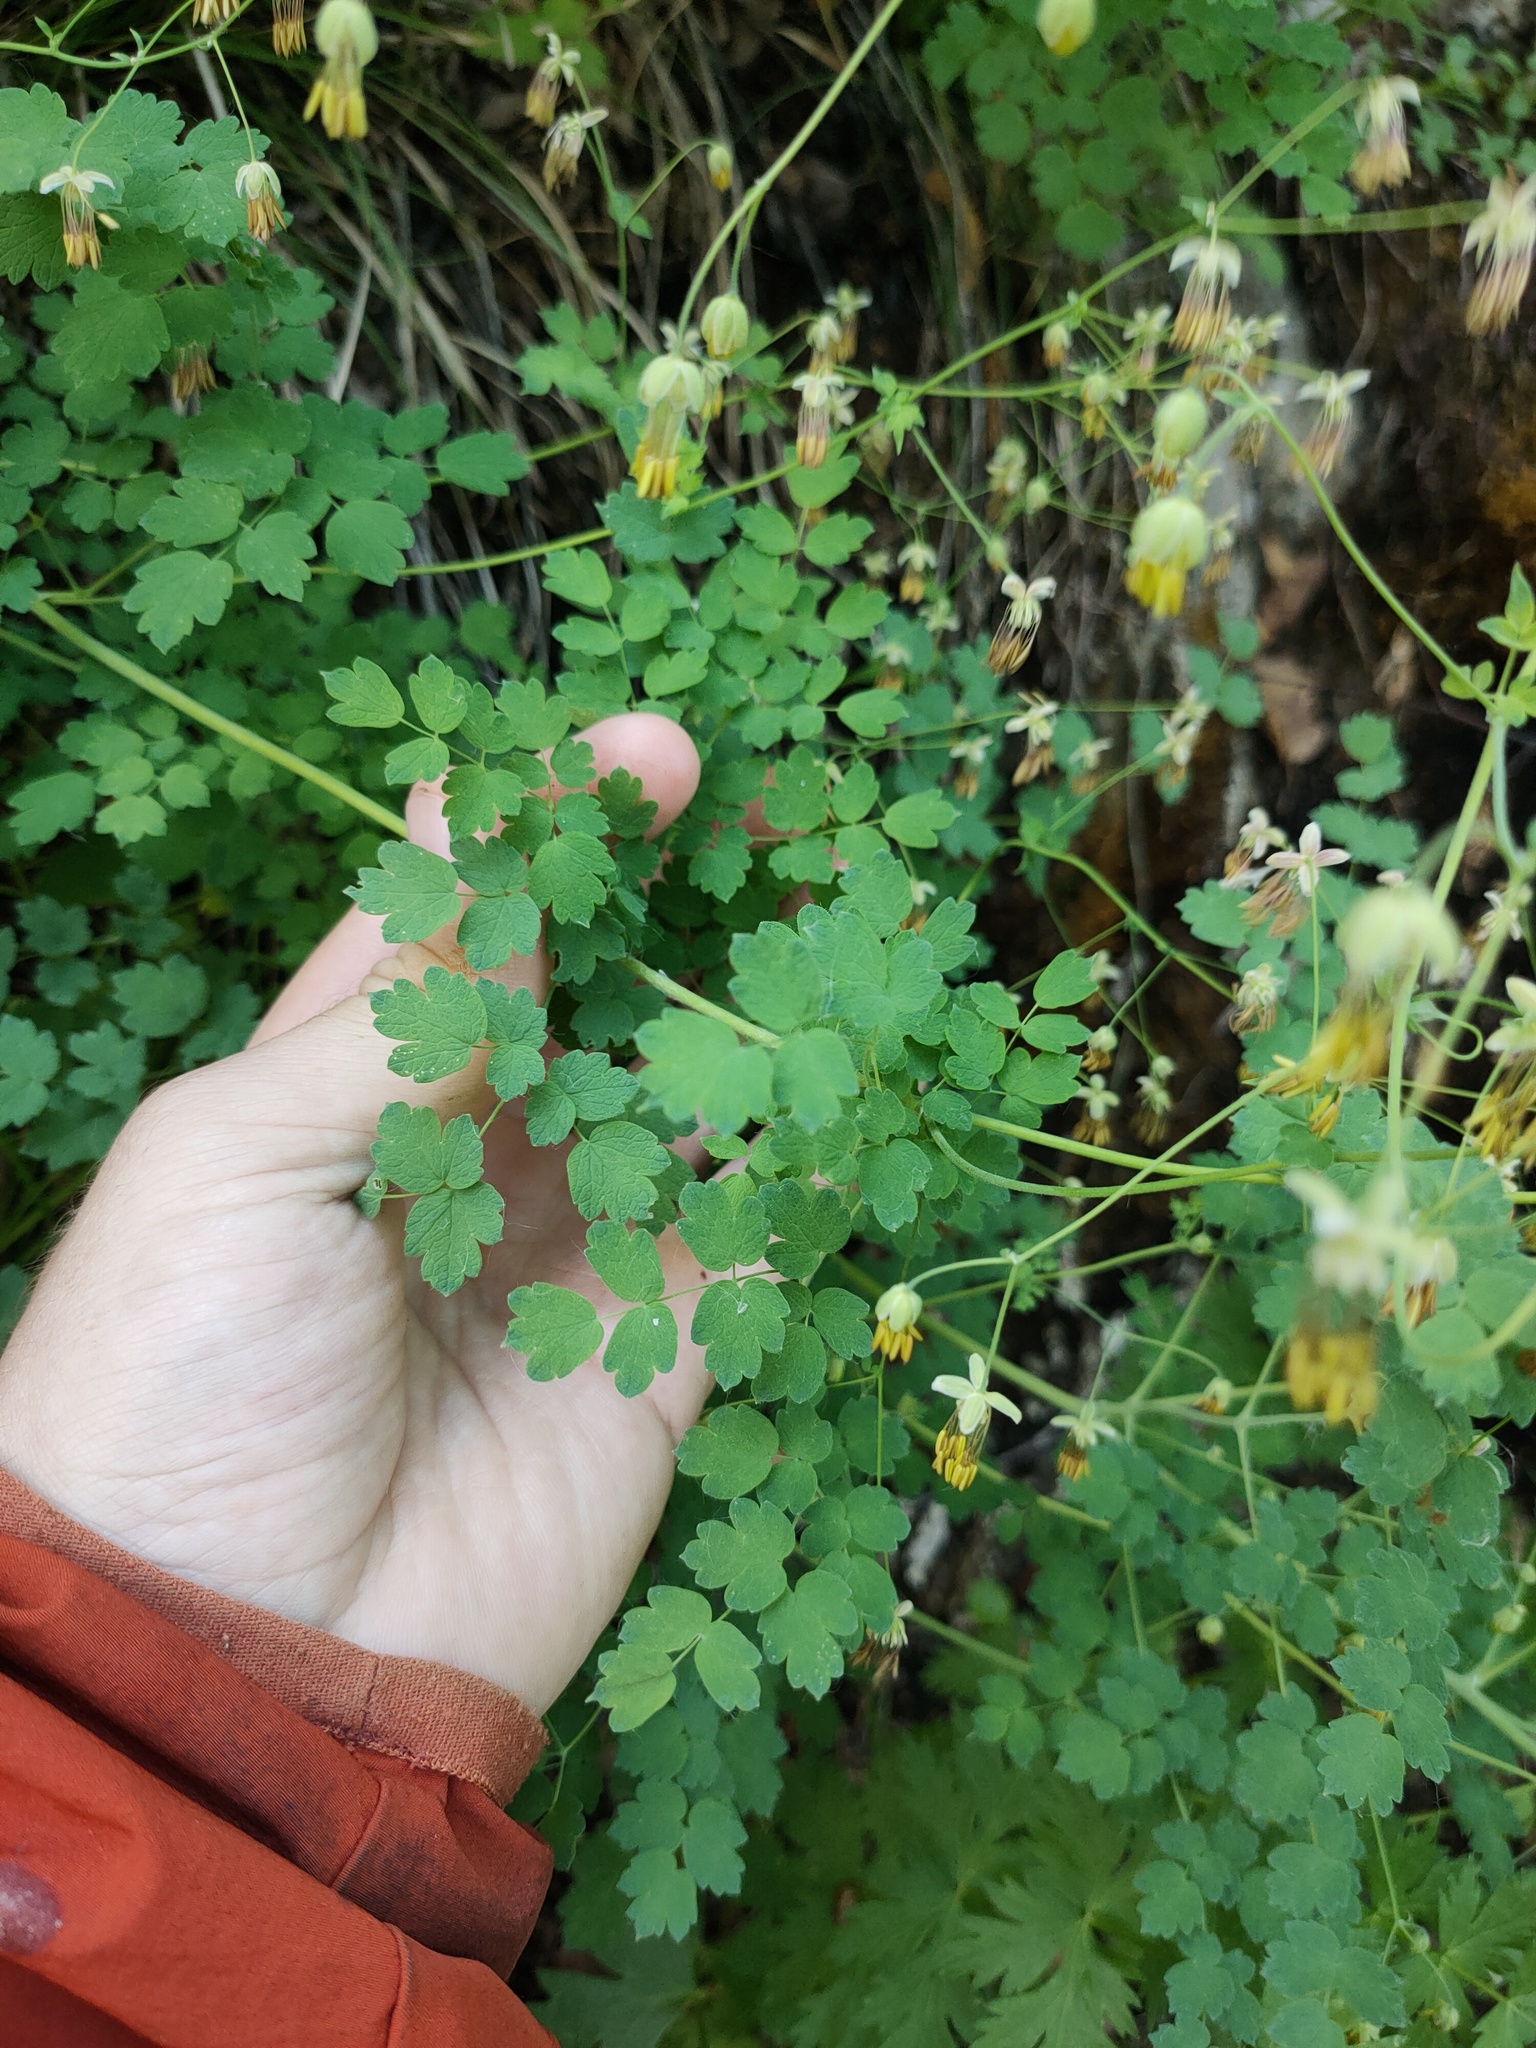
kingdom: Plantae
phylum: Tracheophyta
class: Magnoliopsida
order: Ranunculales
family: Ranunculaceae
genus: Thalictrum
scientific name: Thalictrum minus
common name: Lesser meadow-rue
